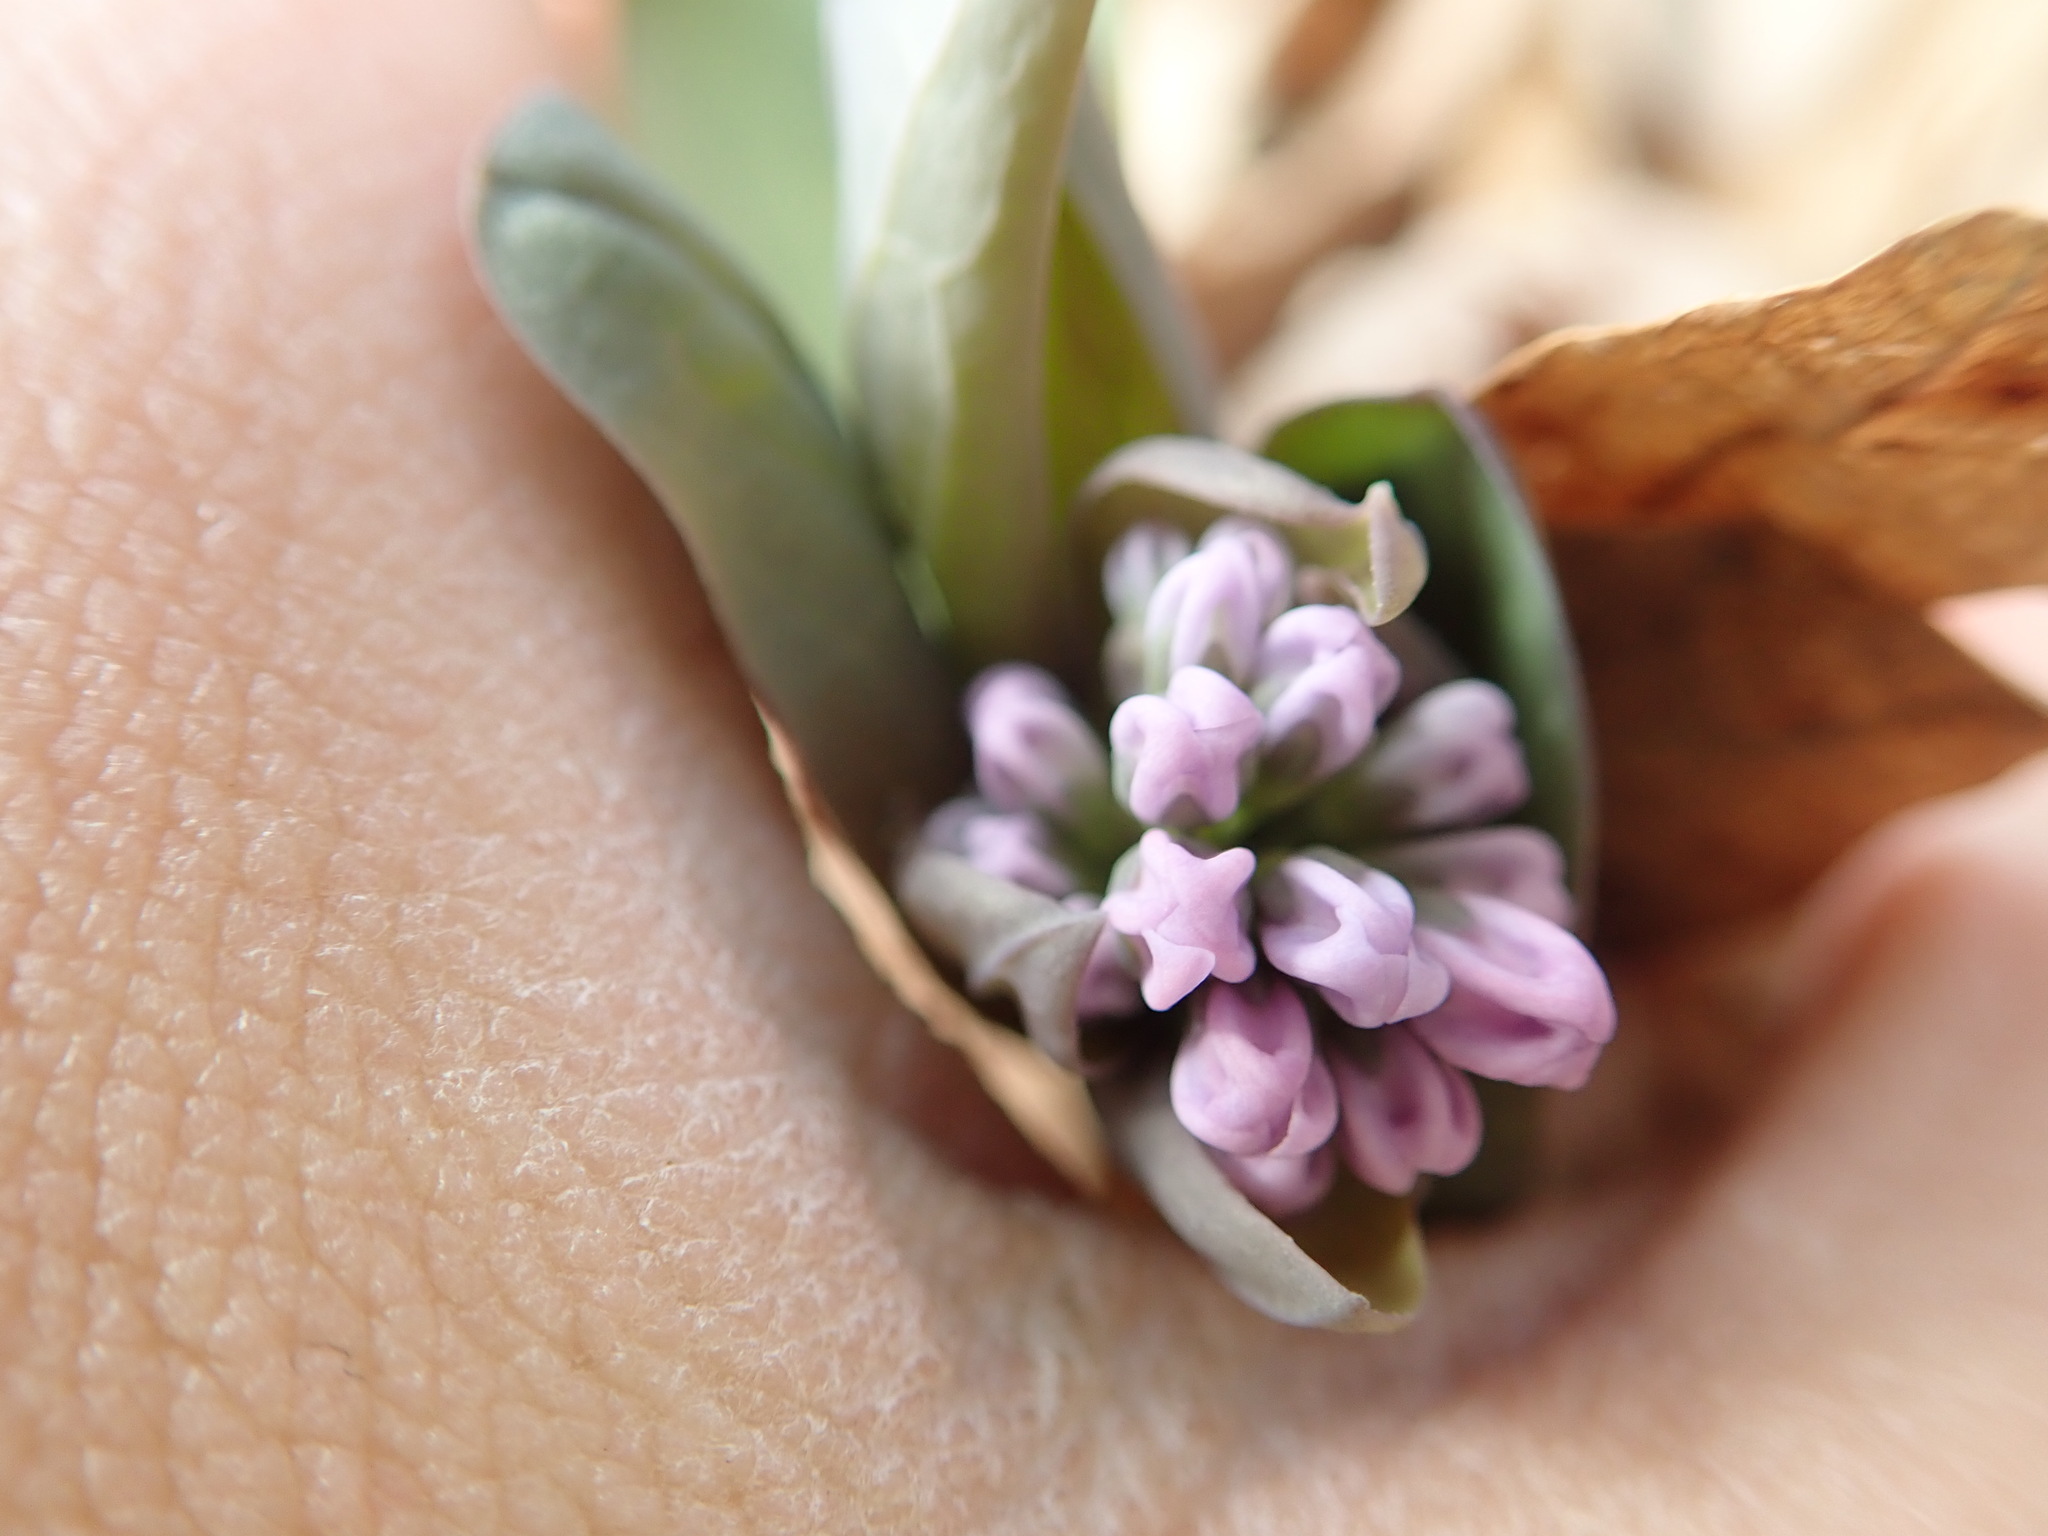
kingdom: Plantae
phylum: Tracheophyta
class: Magnoliopsida
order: Boraginales
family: Boraginaceae
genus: Mertensia
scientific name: Mertensia virginica
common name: Virginia bluebells
